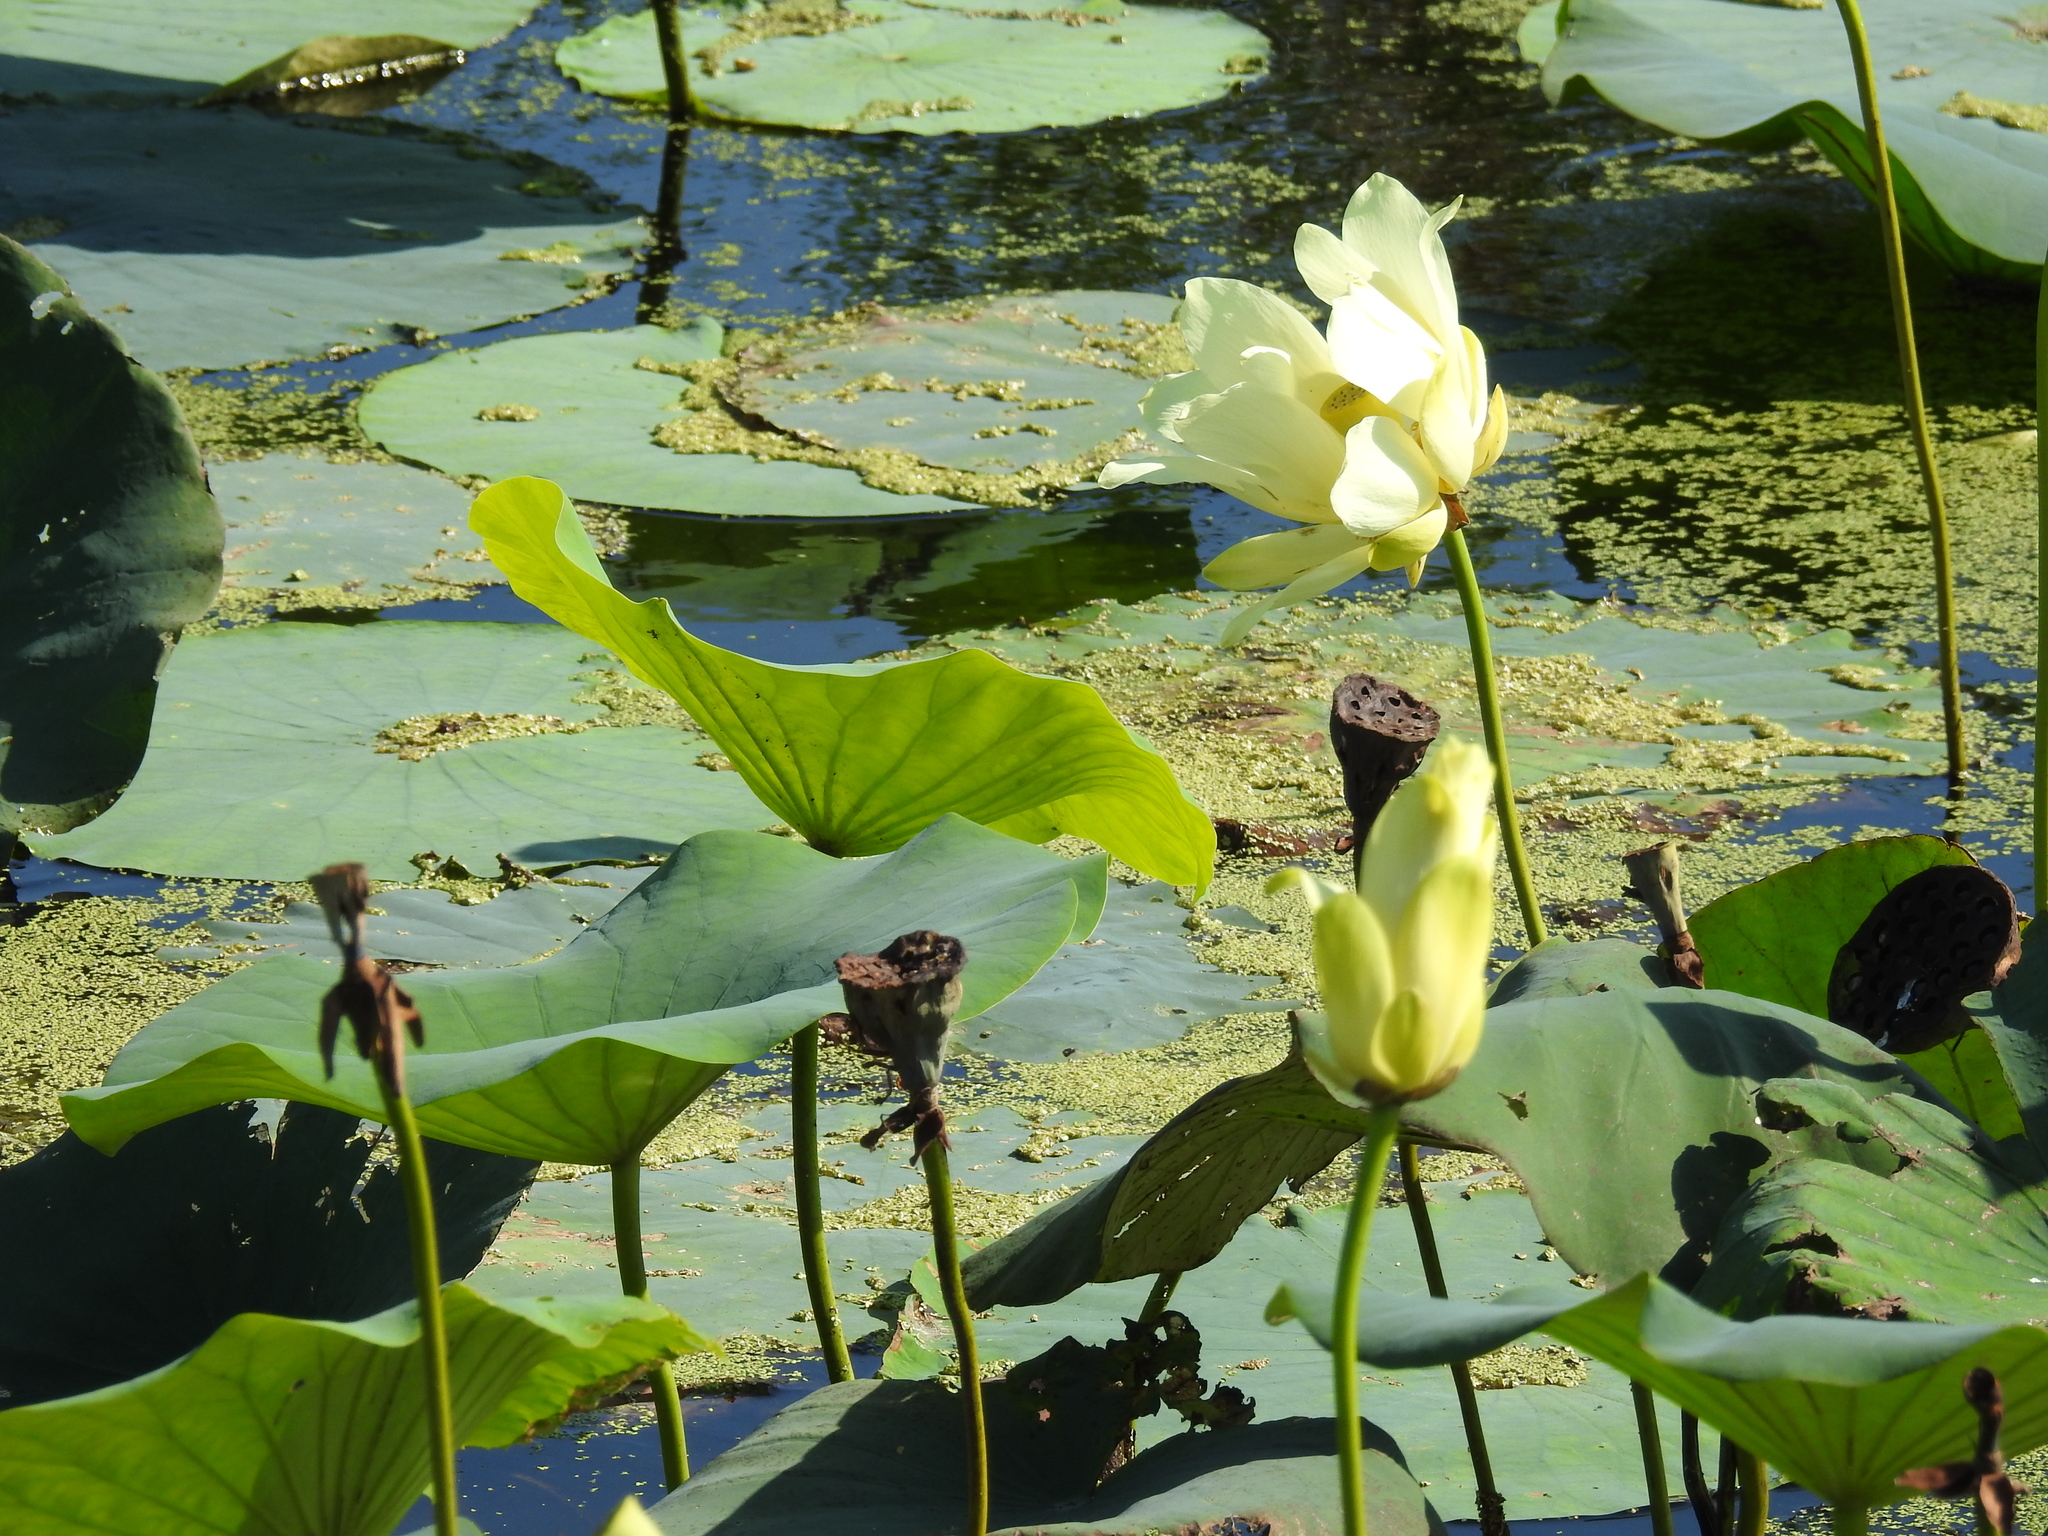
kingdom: Plantae
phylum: Tracheophyta
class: Magnoliopsida
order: Proteales
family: Nelumbonaceae
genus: Nelumbo
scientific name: Nelumbo lutea
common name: American lotus
